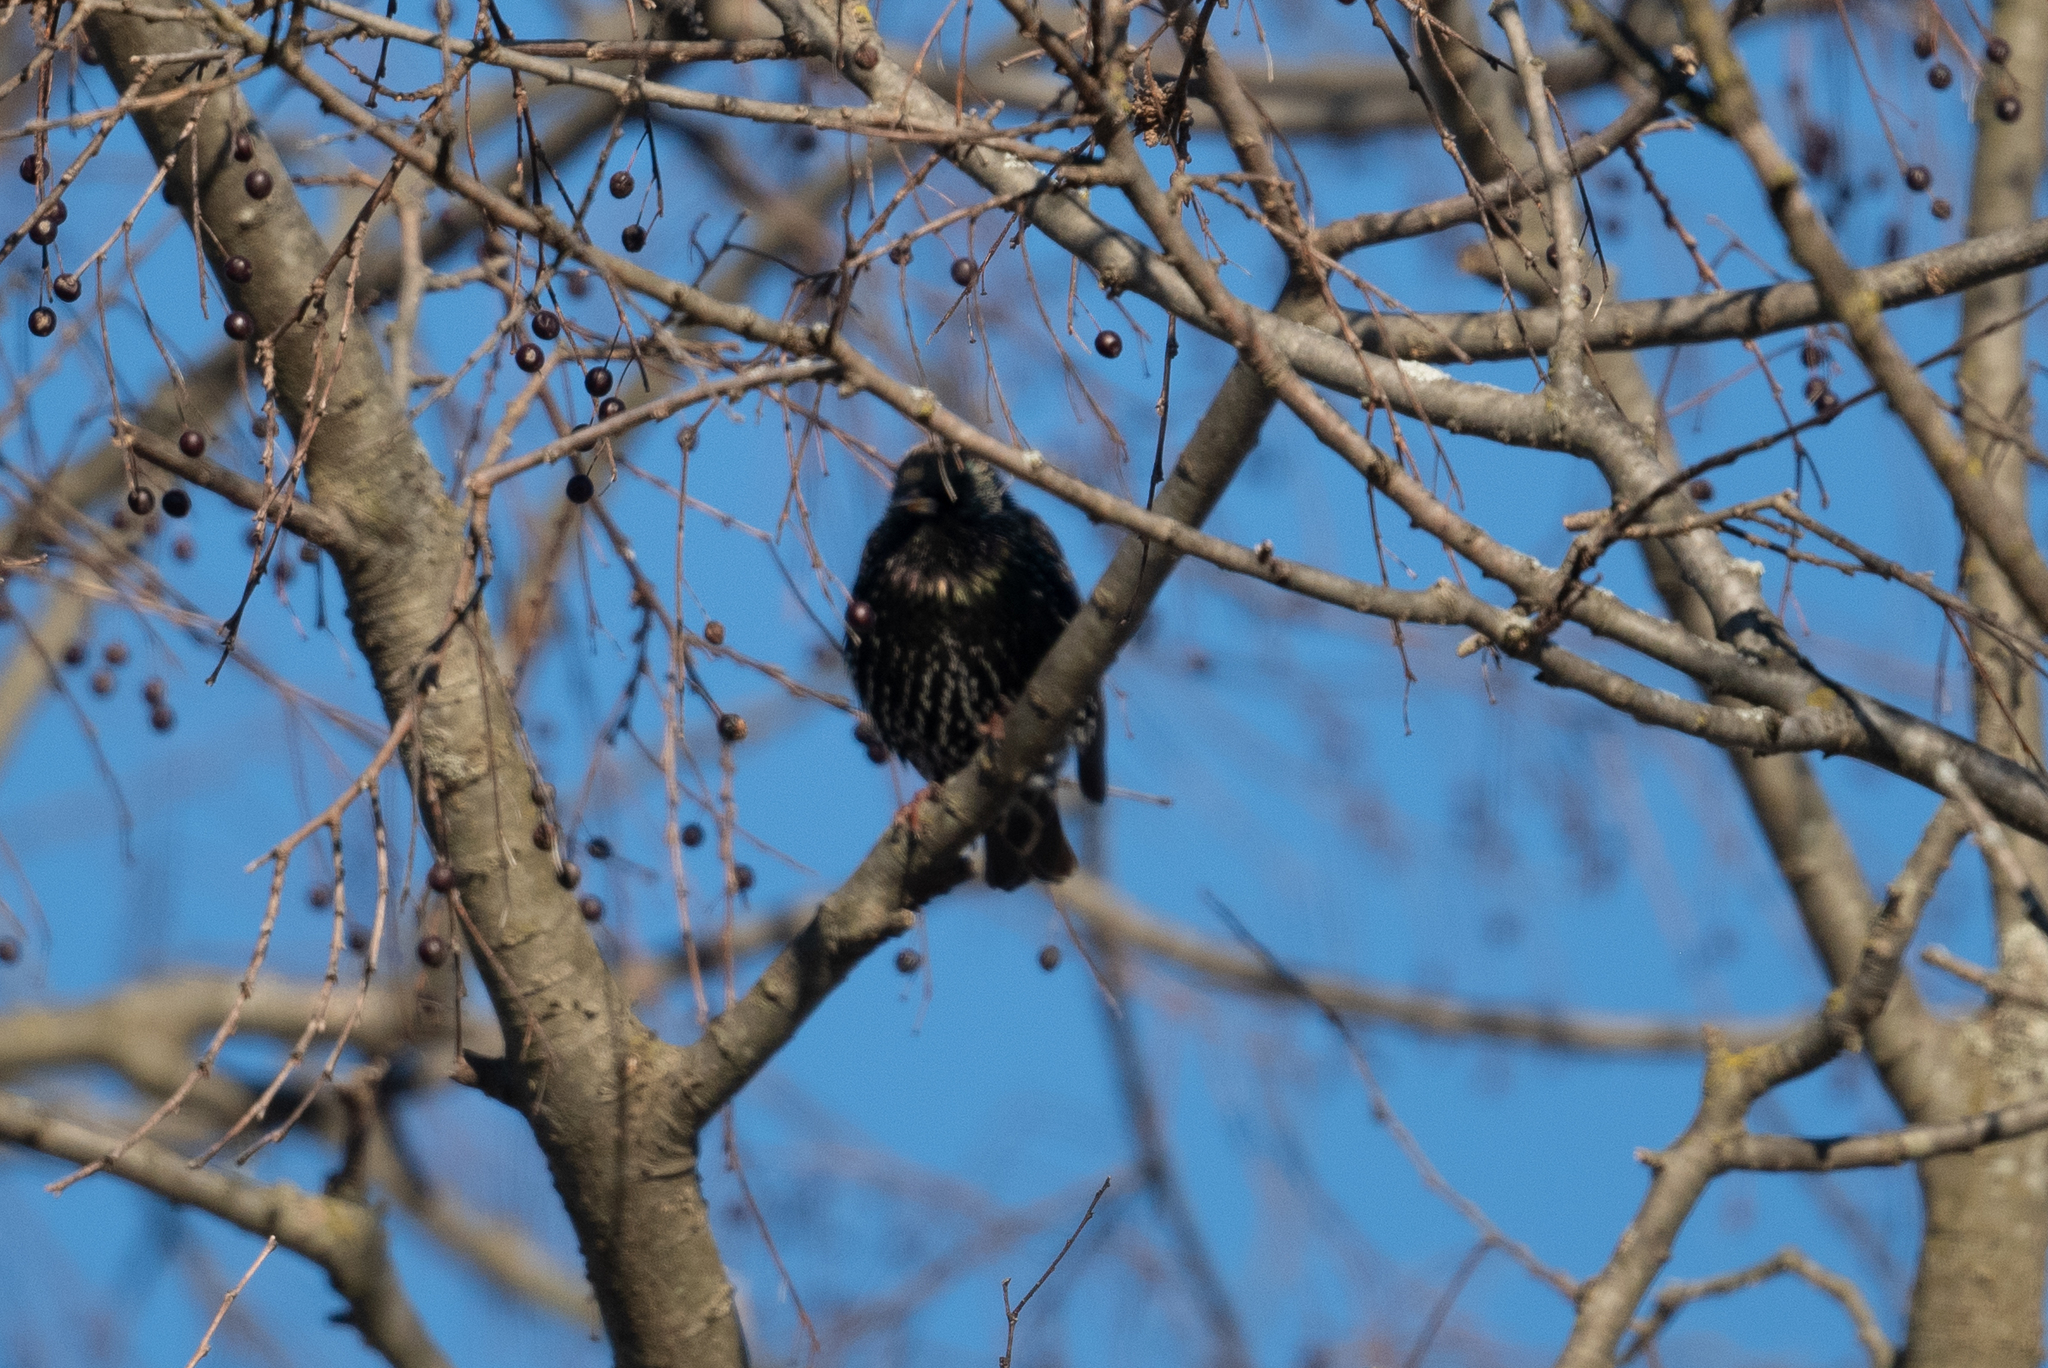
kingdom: Animalia
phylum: Chordata
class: Aves
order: Passeriformes
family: Sturnidae
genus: Sturnus
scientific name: Sturnus vulgaris
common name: Common starling
